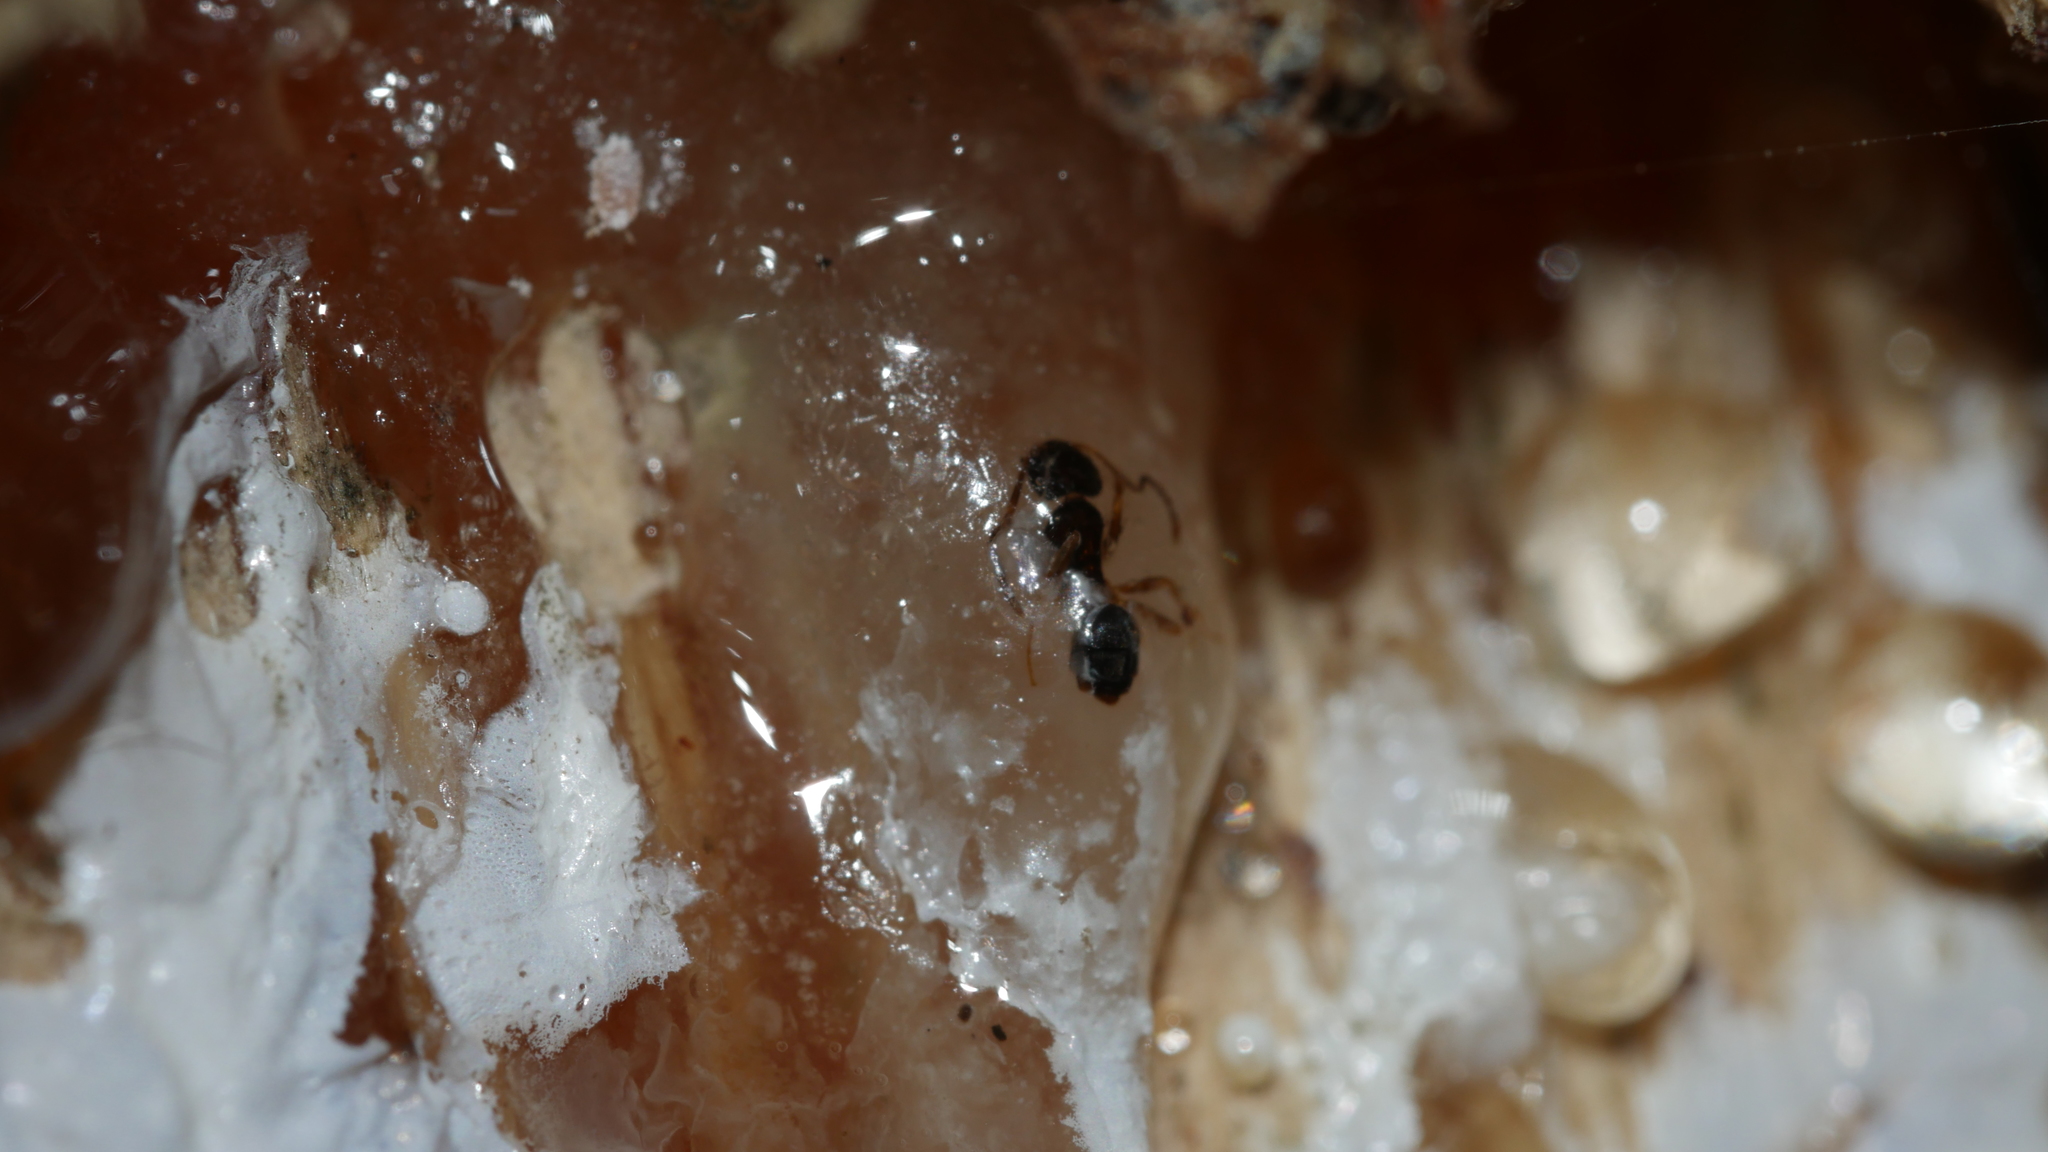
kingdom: Animalia
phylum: Arthropoda
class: Insecta
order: Hymenoptera
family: Formicidae
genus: Tapinoma
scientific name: Tapinoma sessile
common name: Odorous house ant
